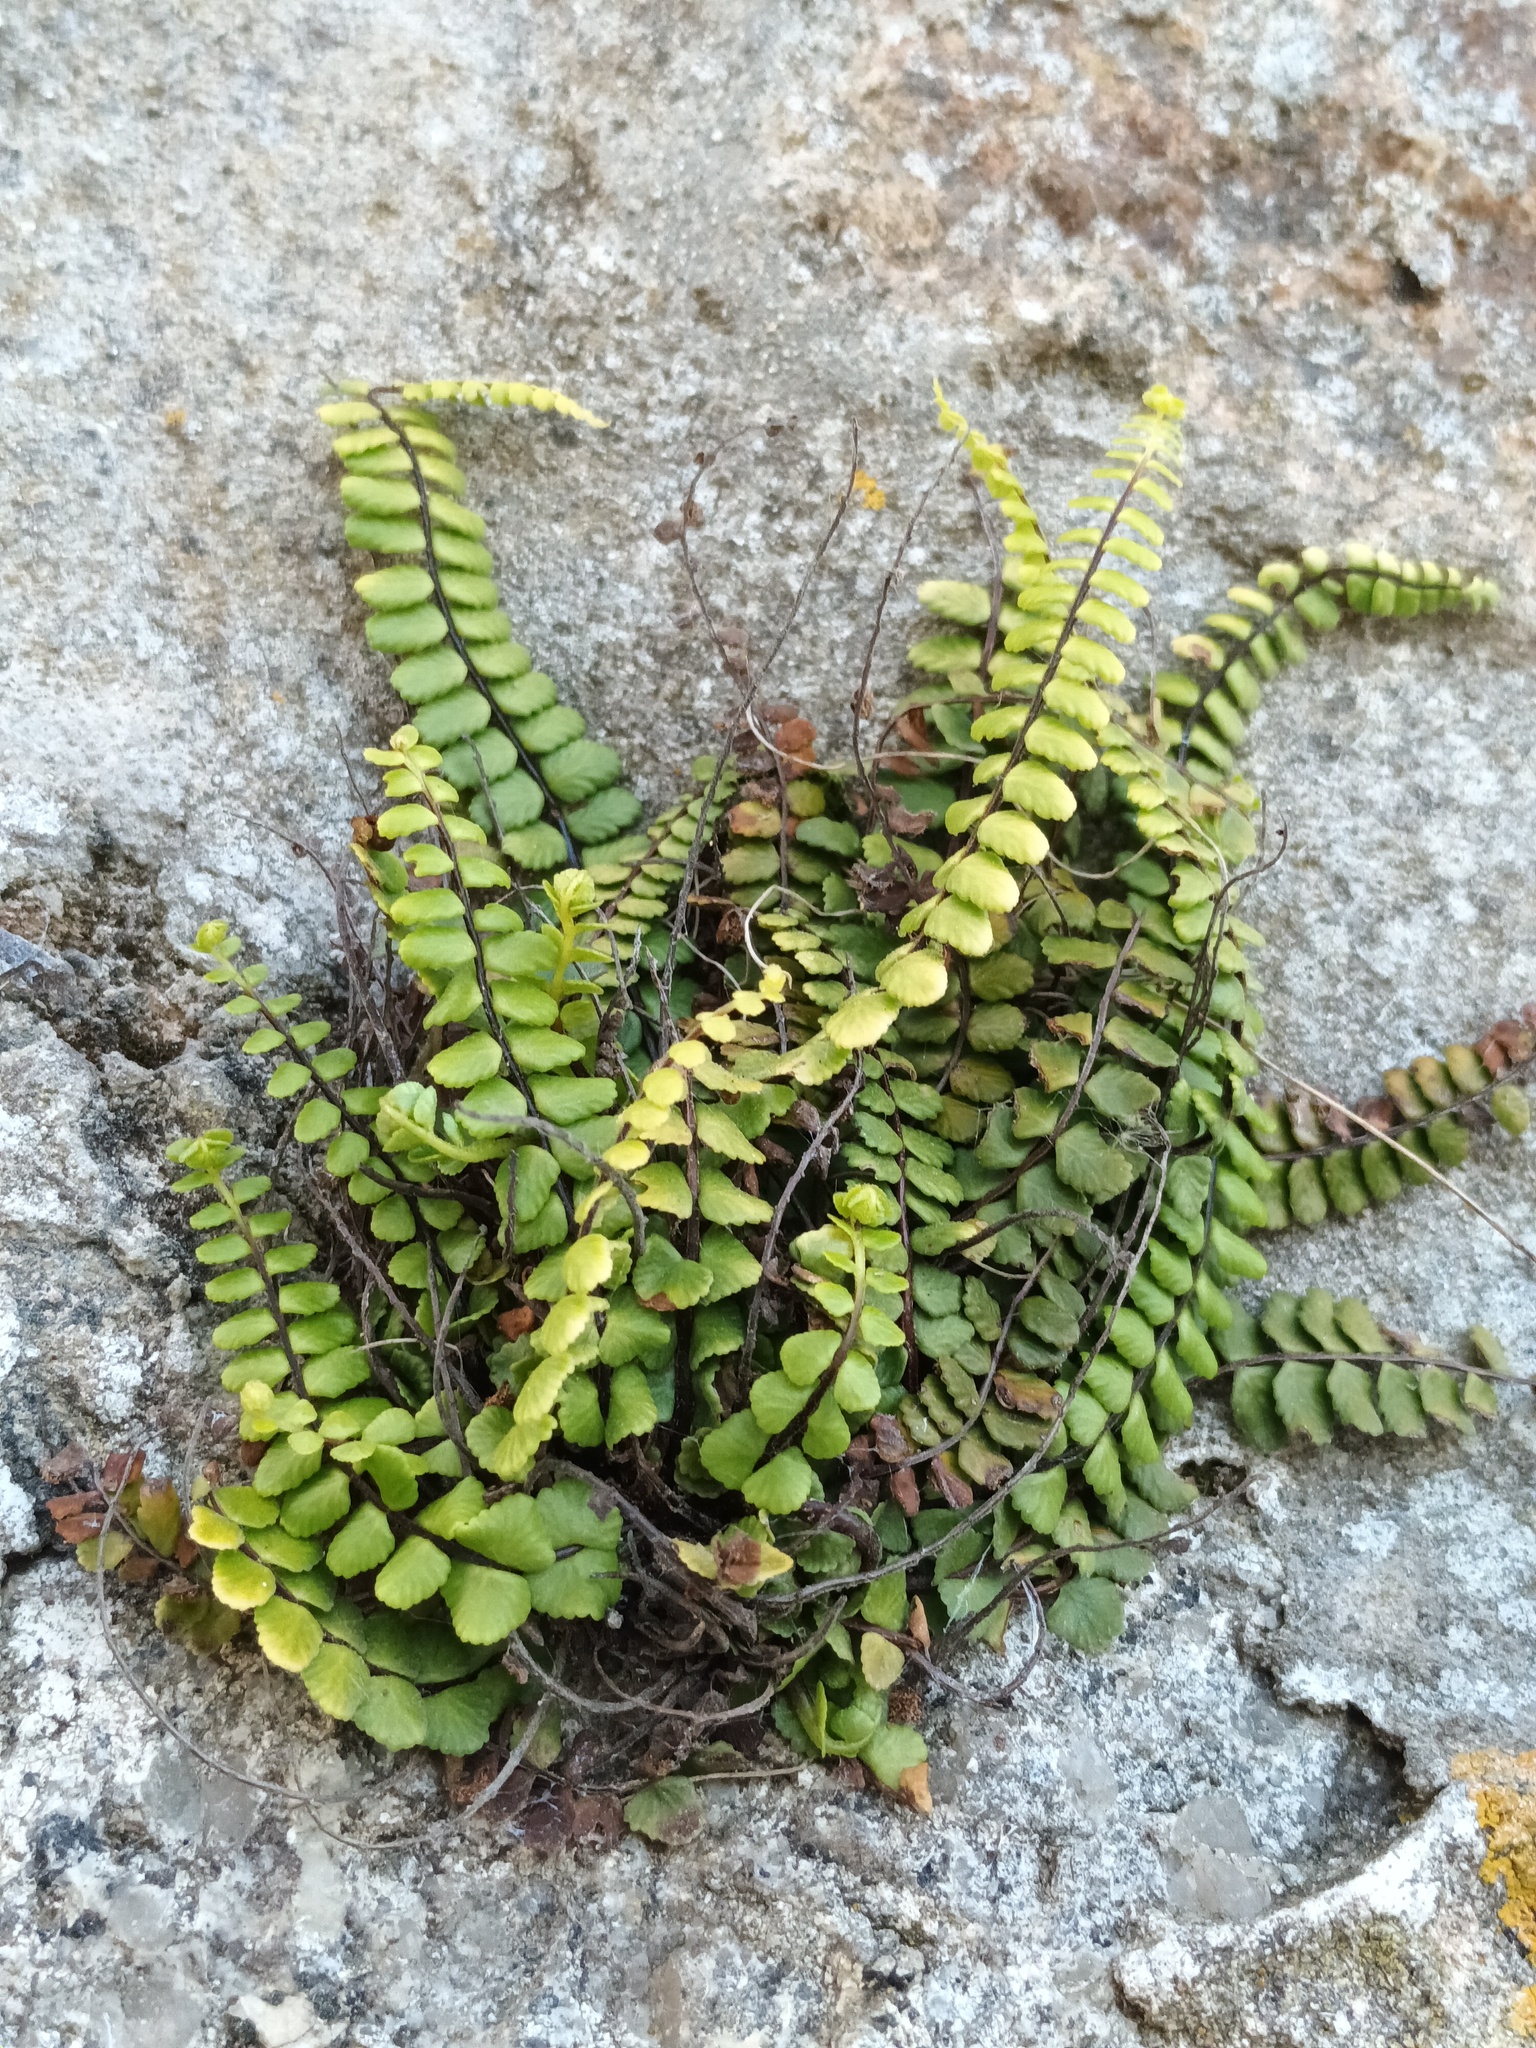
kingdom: Plantae
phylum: Tracheophyta
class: Polypodiopsida
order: Polypodiales
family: Aspleniaceae
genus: Asplenium
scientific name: Asplenium trichomanes
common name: Maidenhair spleenwort
